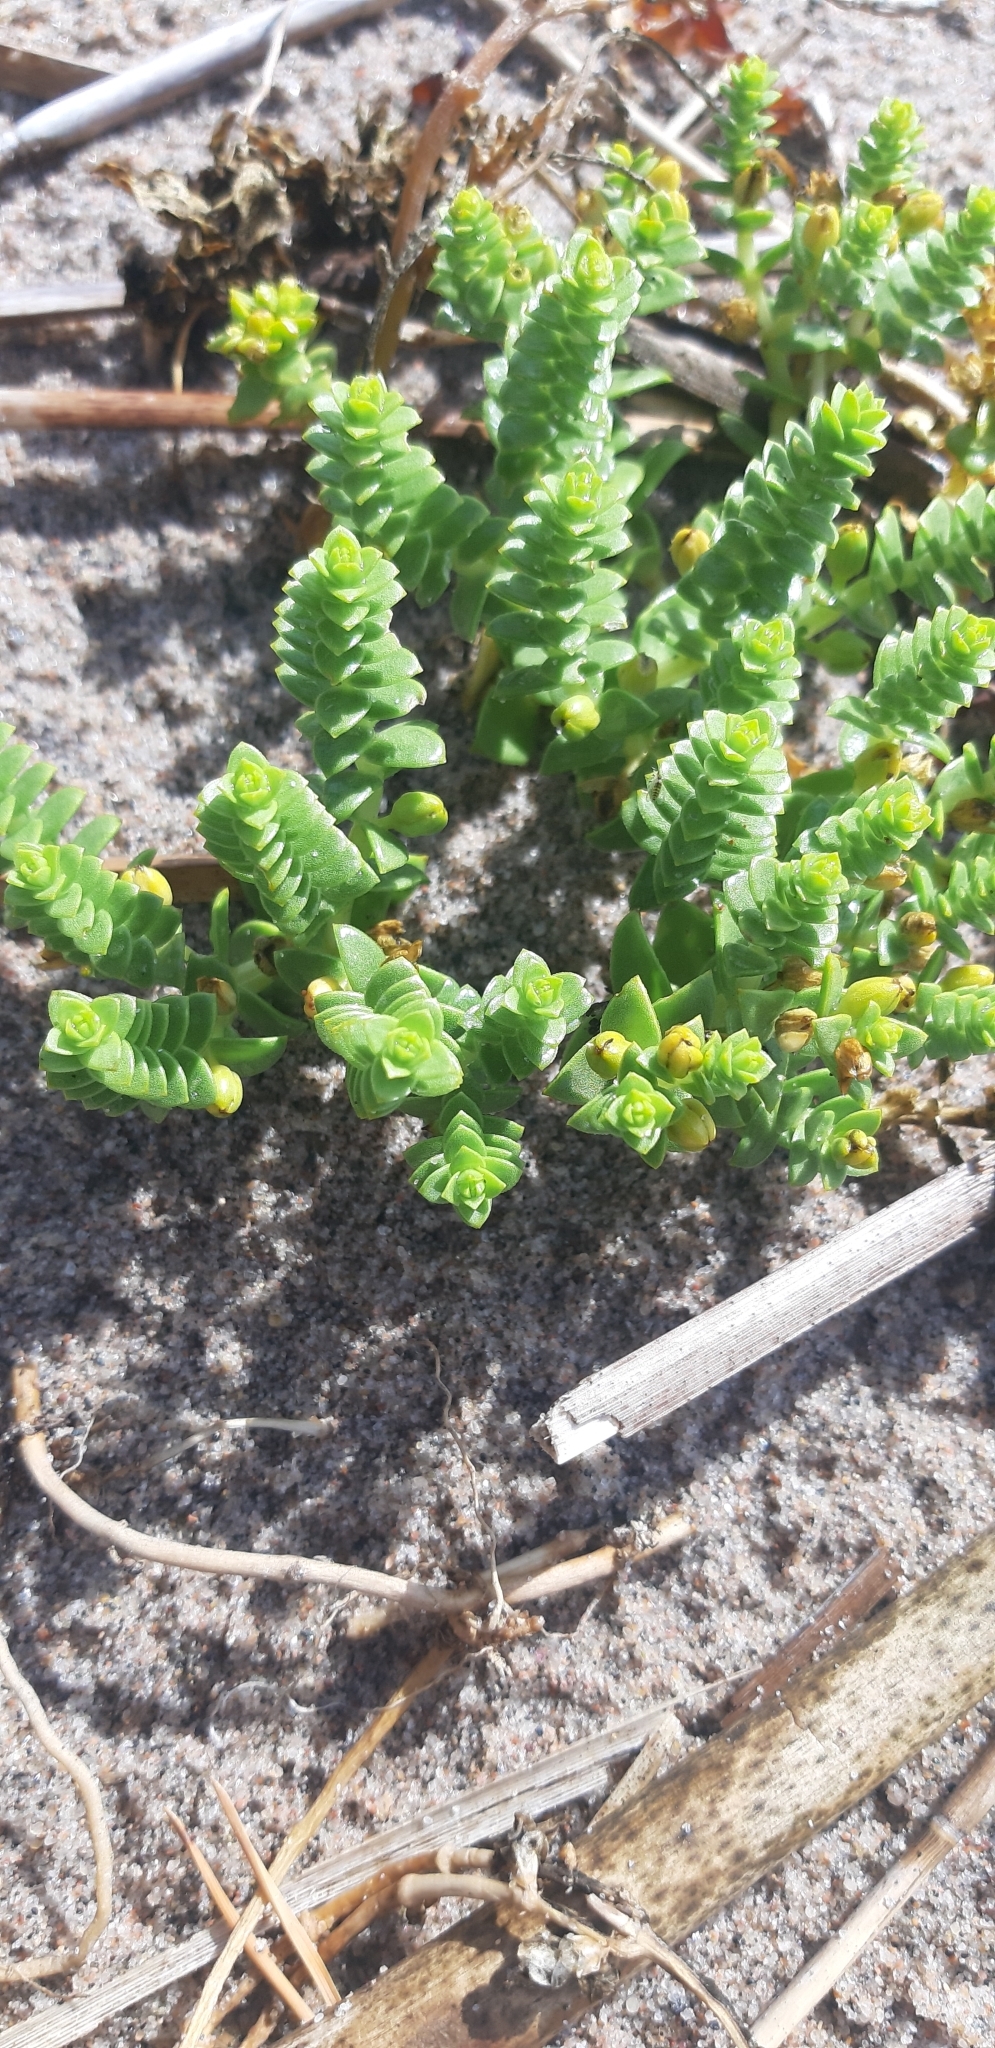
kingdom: Plantae
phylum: Tracheophyta
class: Magnoliopsida
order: Caryophyllales
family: Caryophyllaceae
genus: Honckenya
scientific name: Honckenya peploides
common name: Sea sandwort
